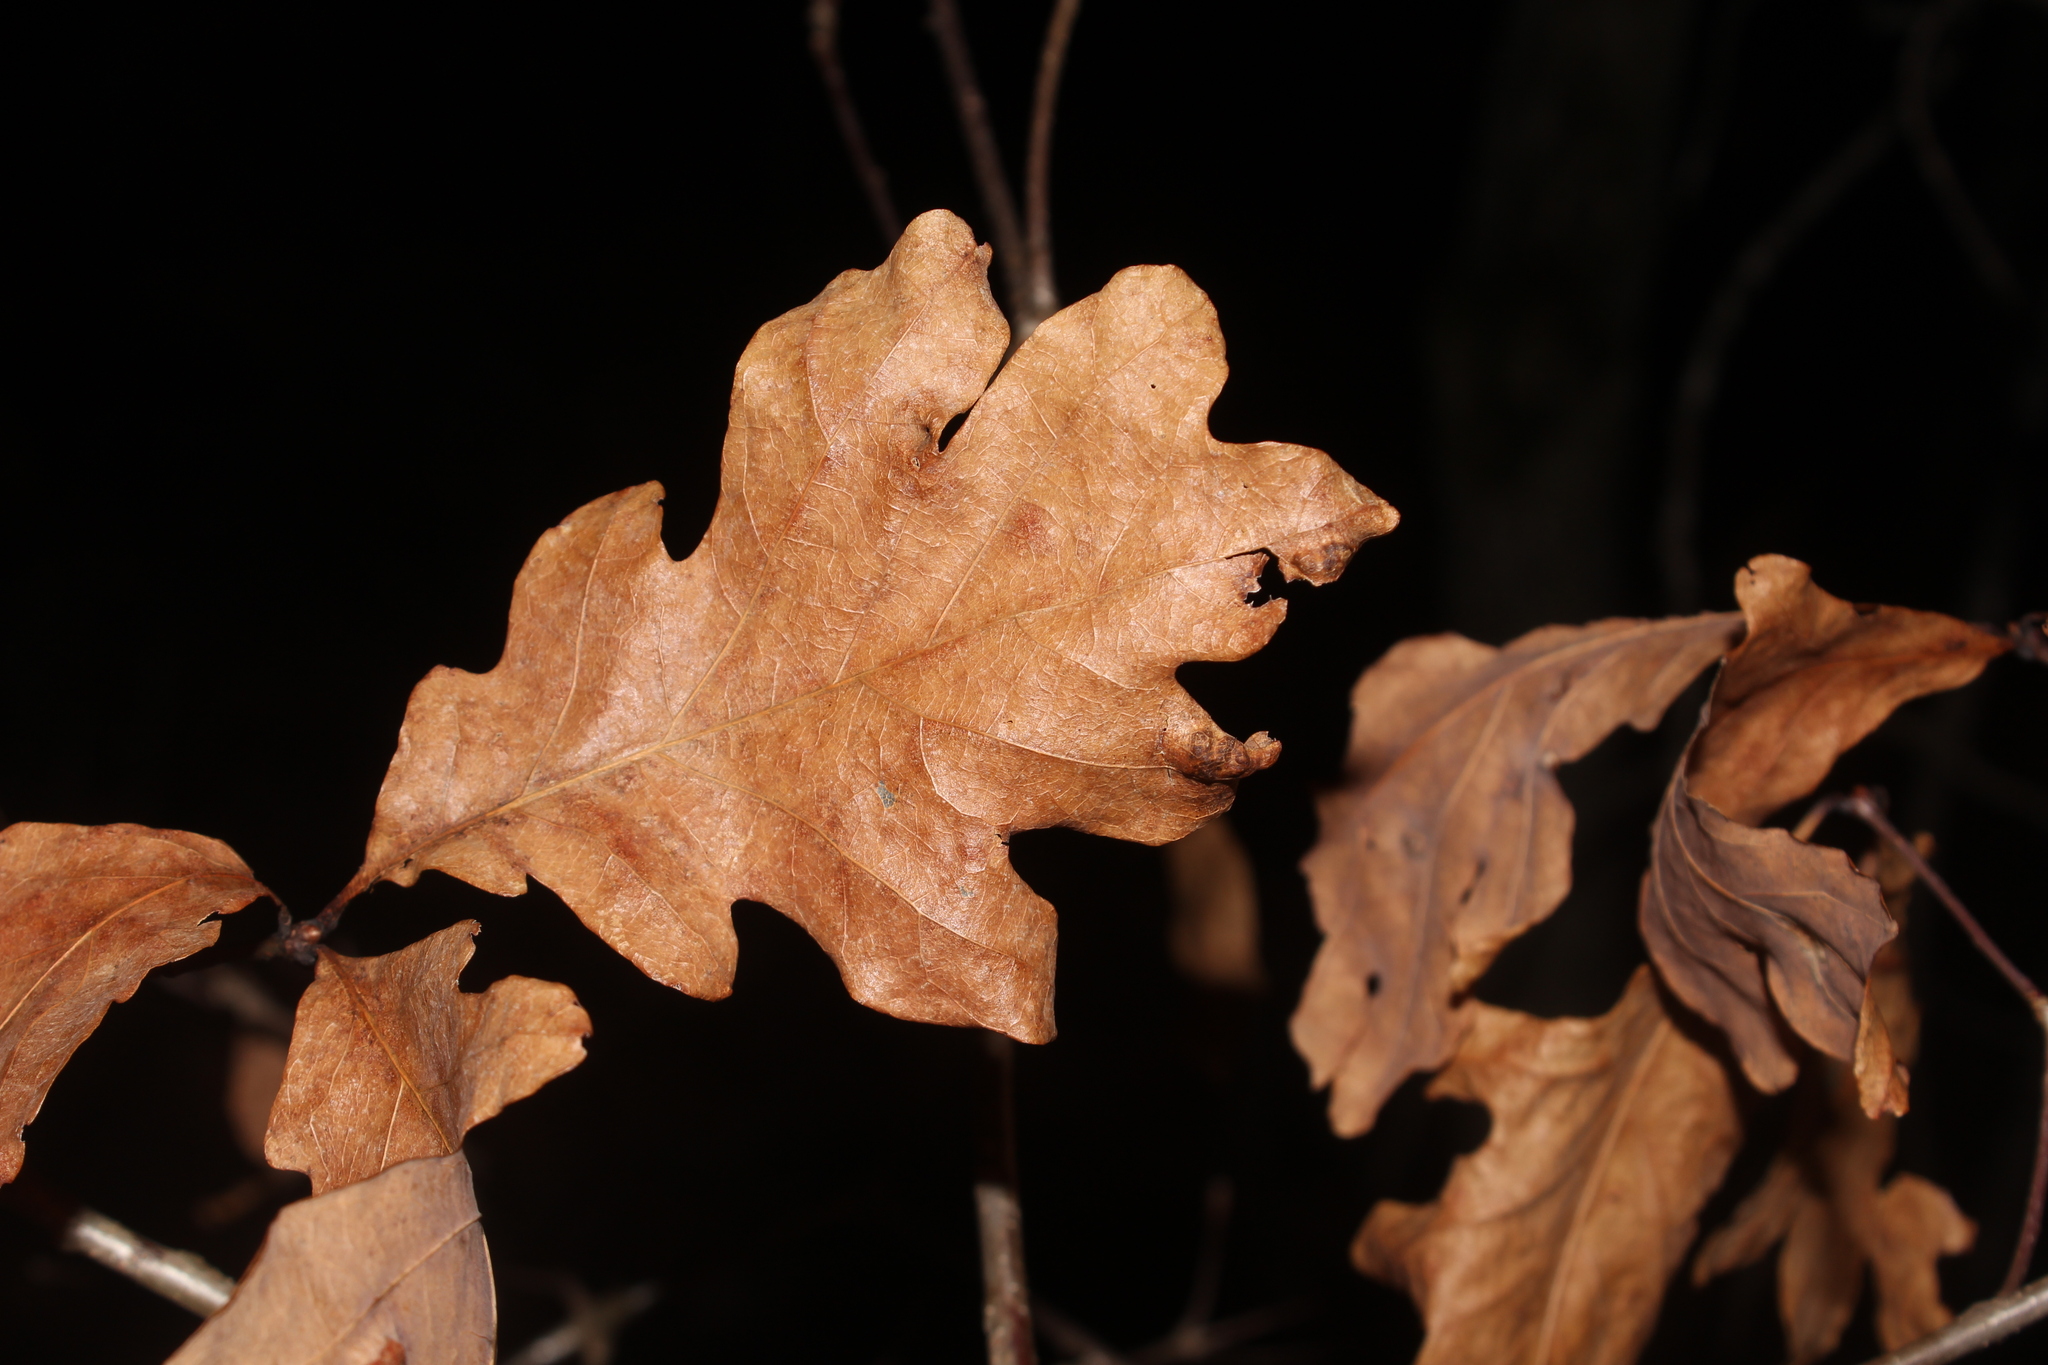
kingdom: Plantae
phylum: Tracheophyta
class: Magnoliopsida
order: Fagales
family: Fagaceae
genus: Quercus
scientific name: Quercus alba
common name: White oak
